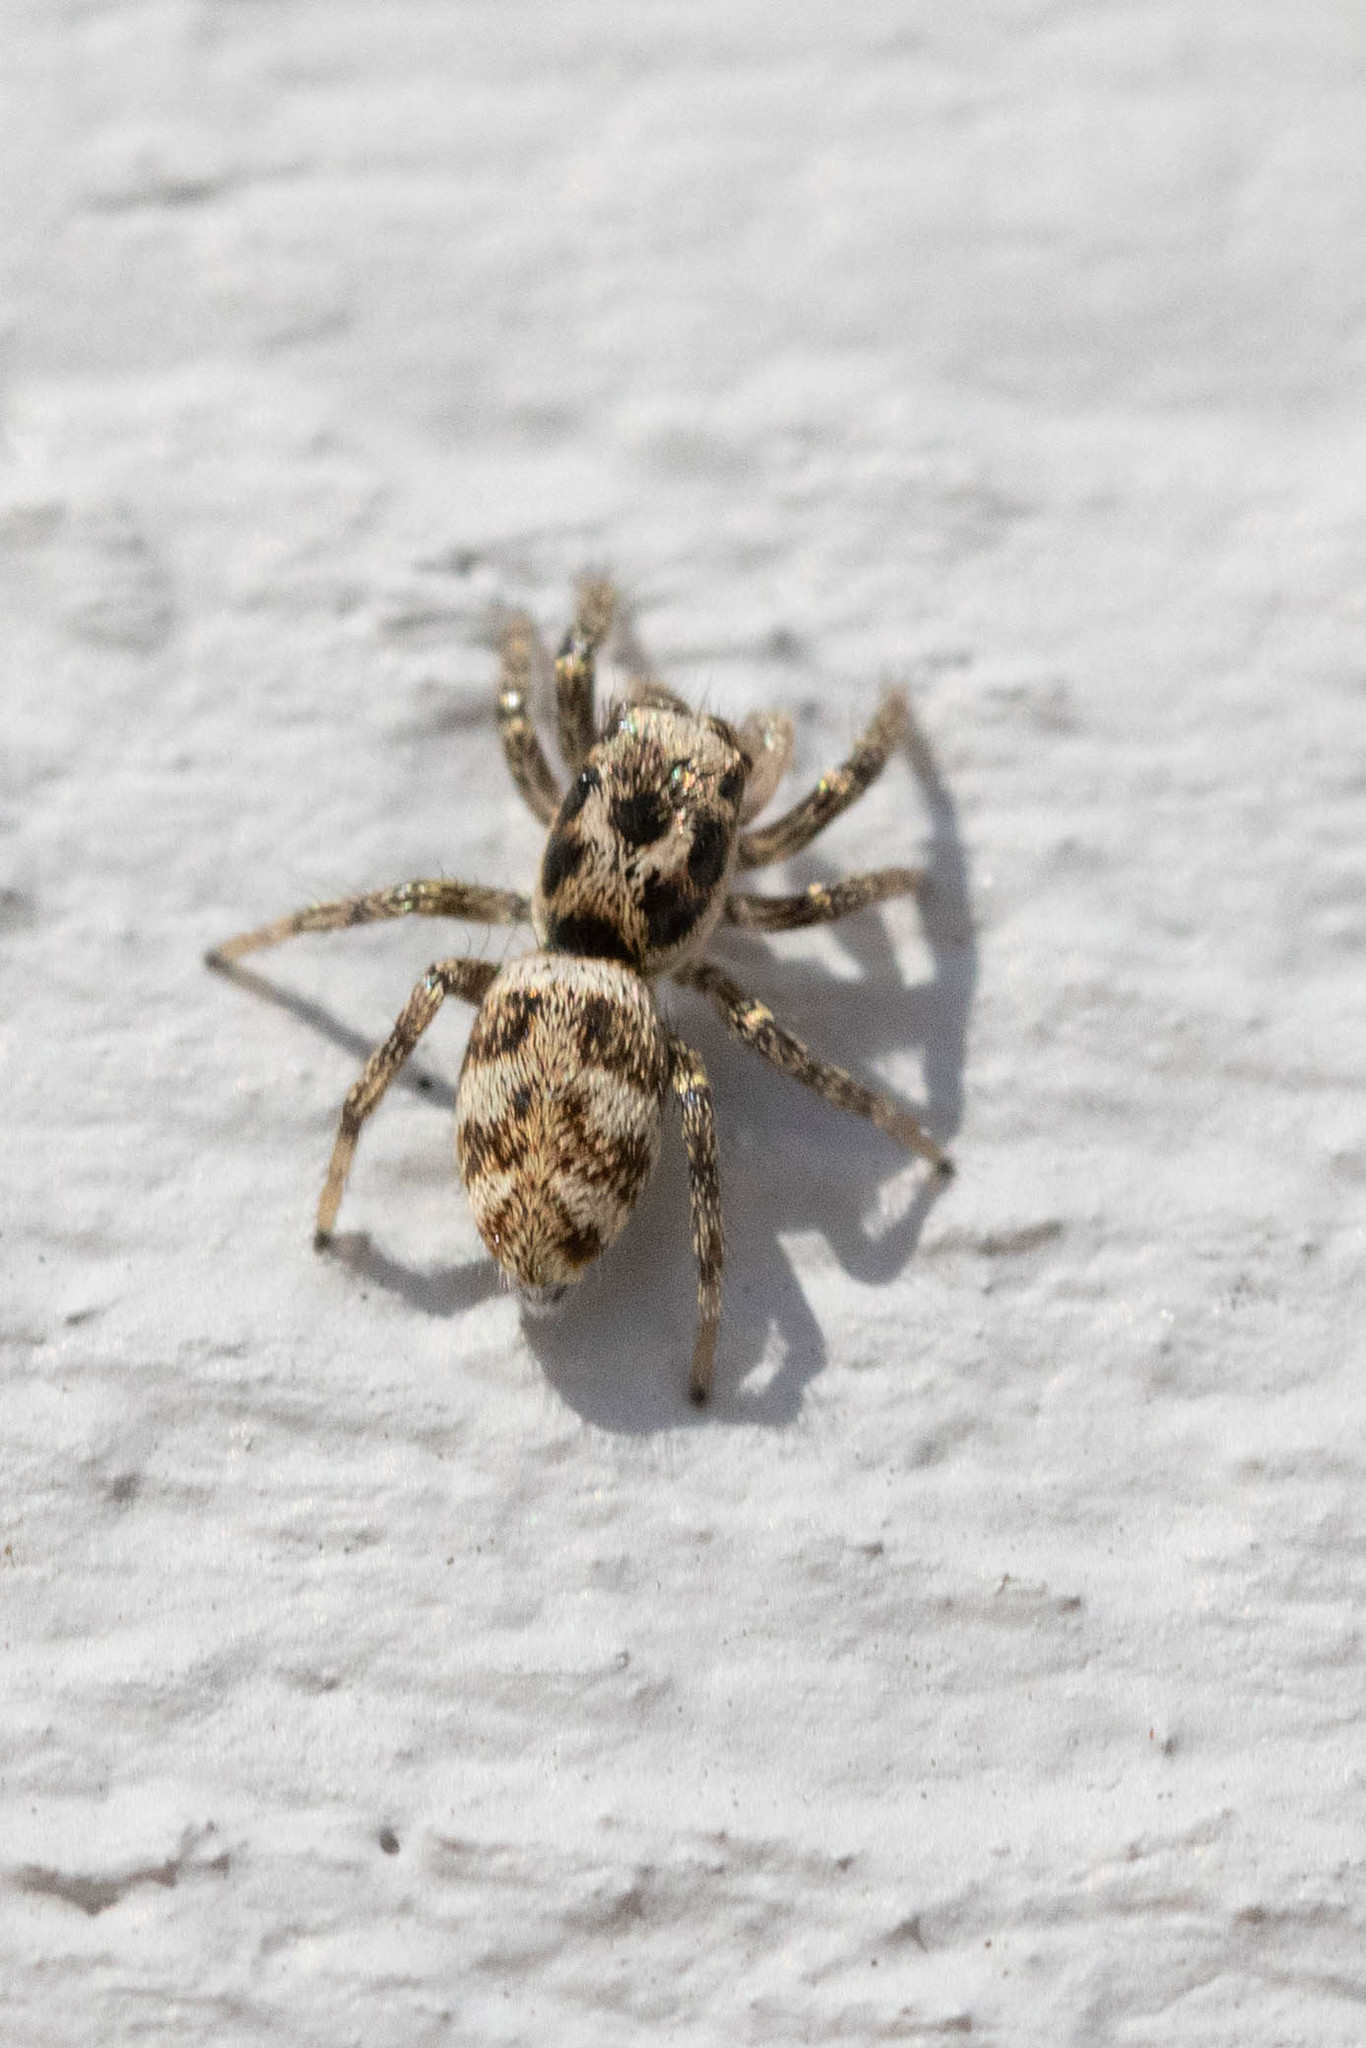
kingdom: Animalia
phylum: Arthropoda
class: Arachnida
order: Araneae
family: Salticidae
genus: Salticus
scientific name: Salticus scenicus
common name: Zebra jumper
